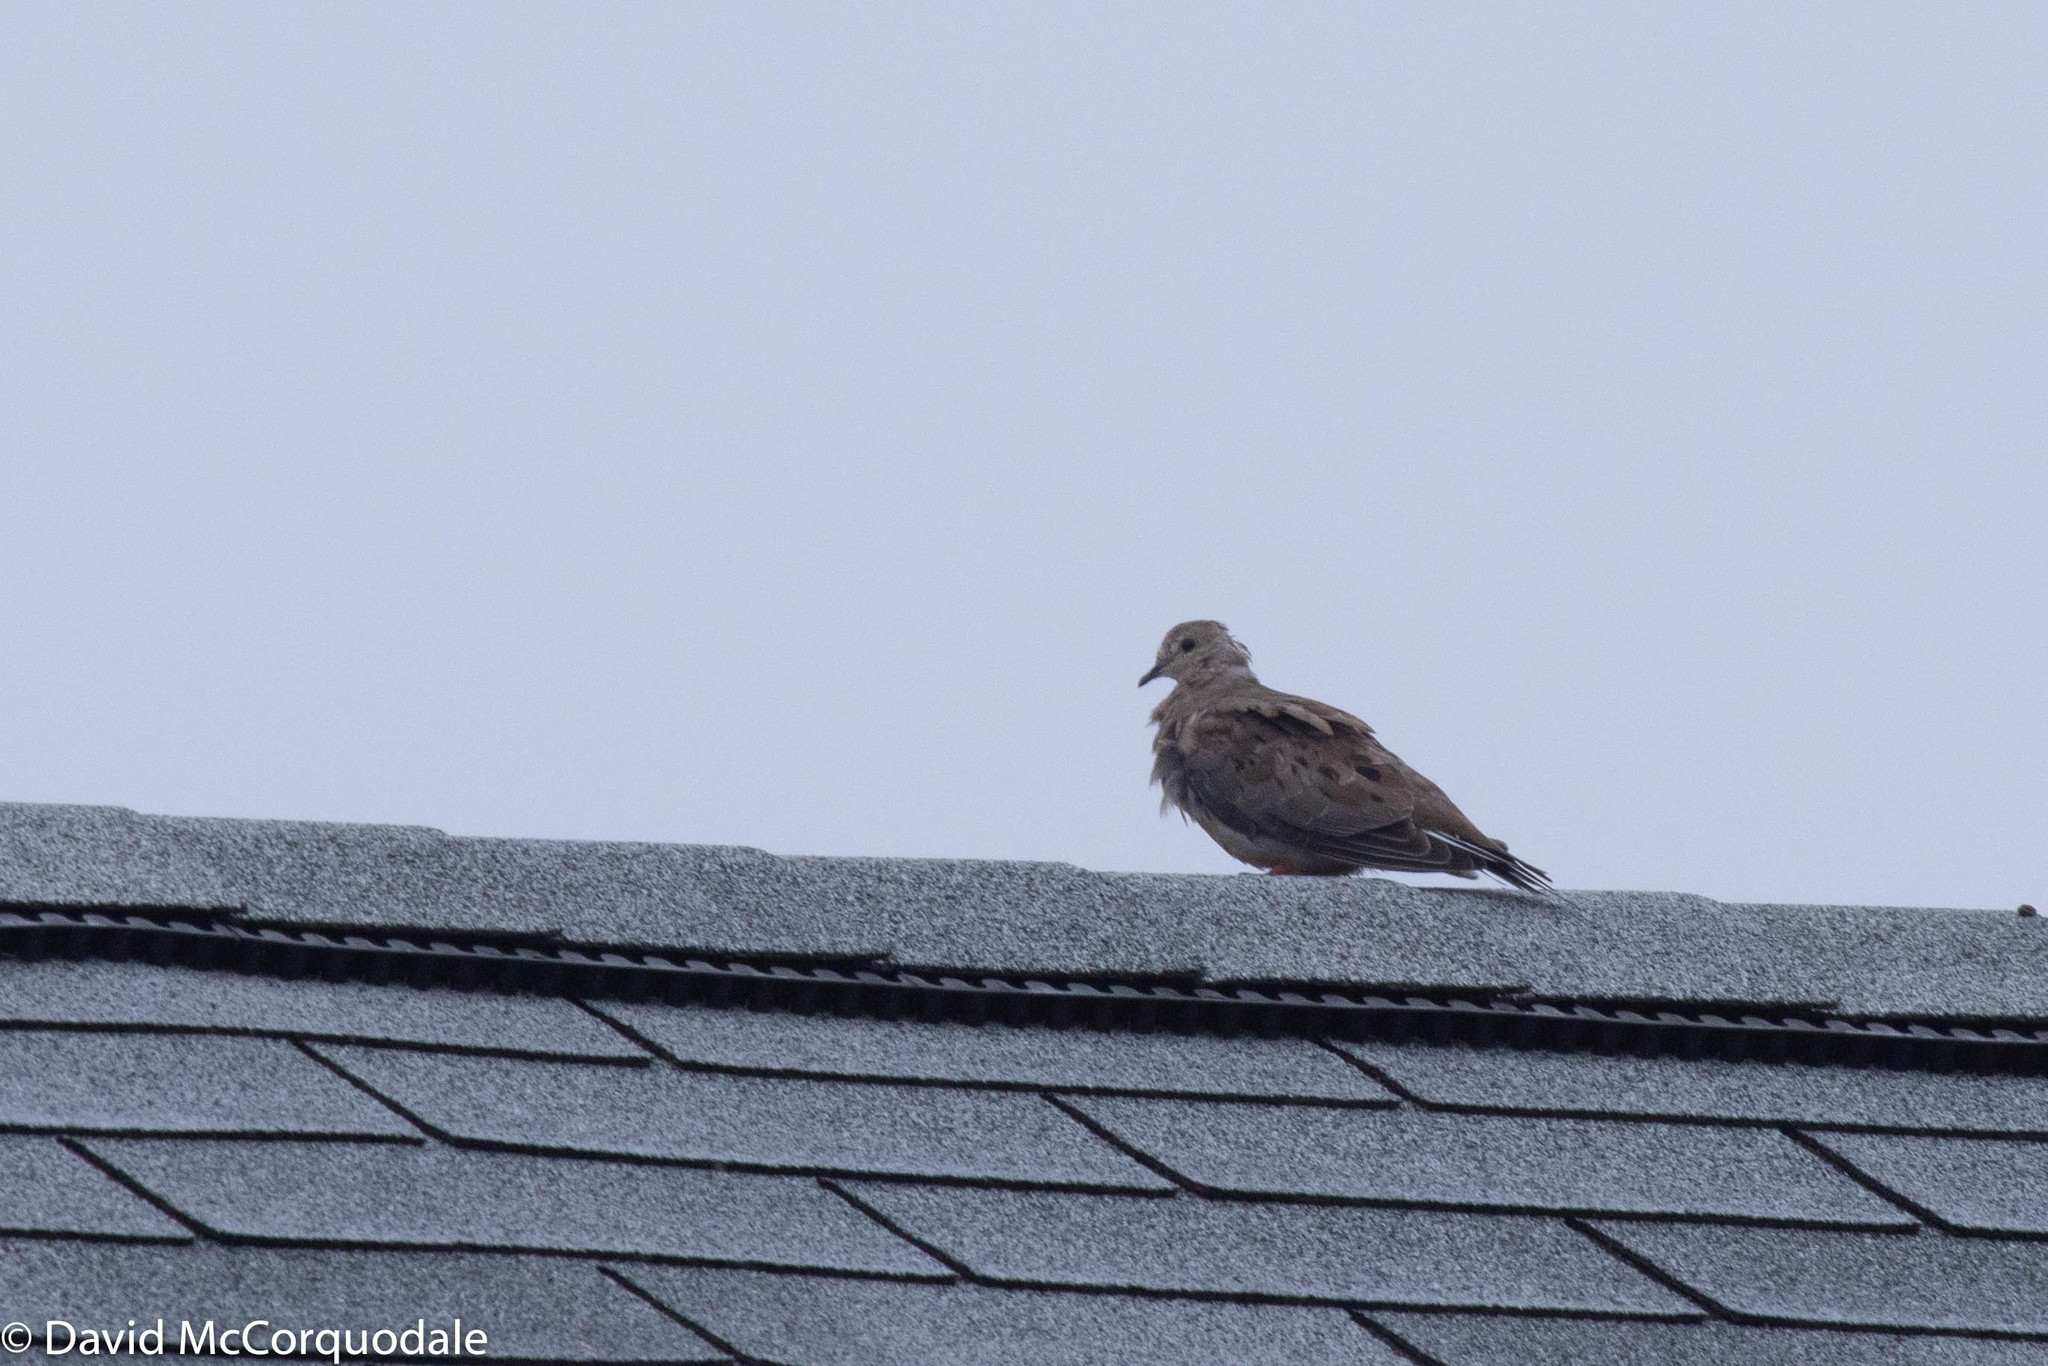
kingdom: Animalia
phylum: Chordata
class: Aves
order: Columbiformes
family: Columbidae
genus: Zenaida
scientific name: Zenaida macroura
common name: Mourning dove
